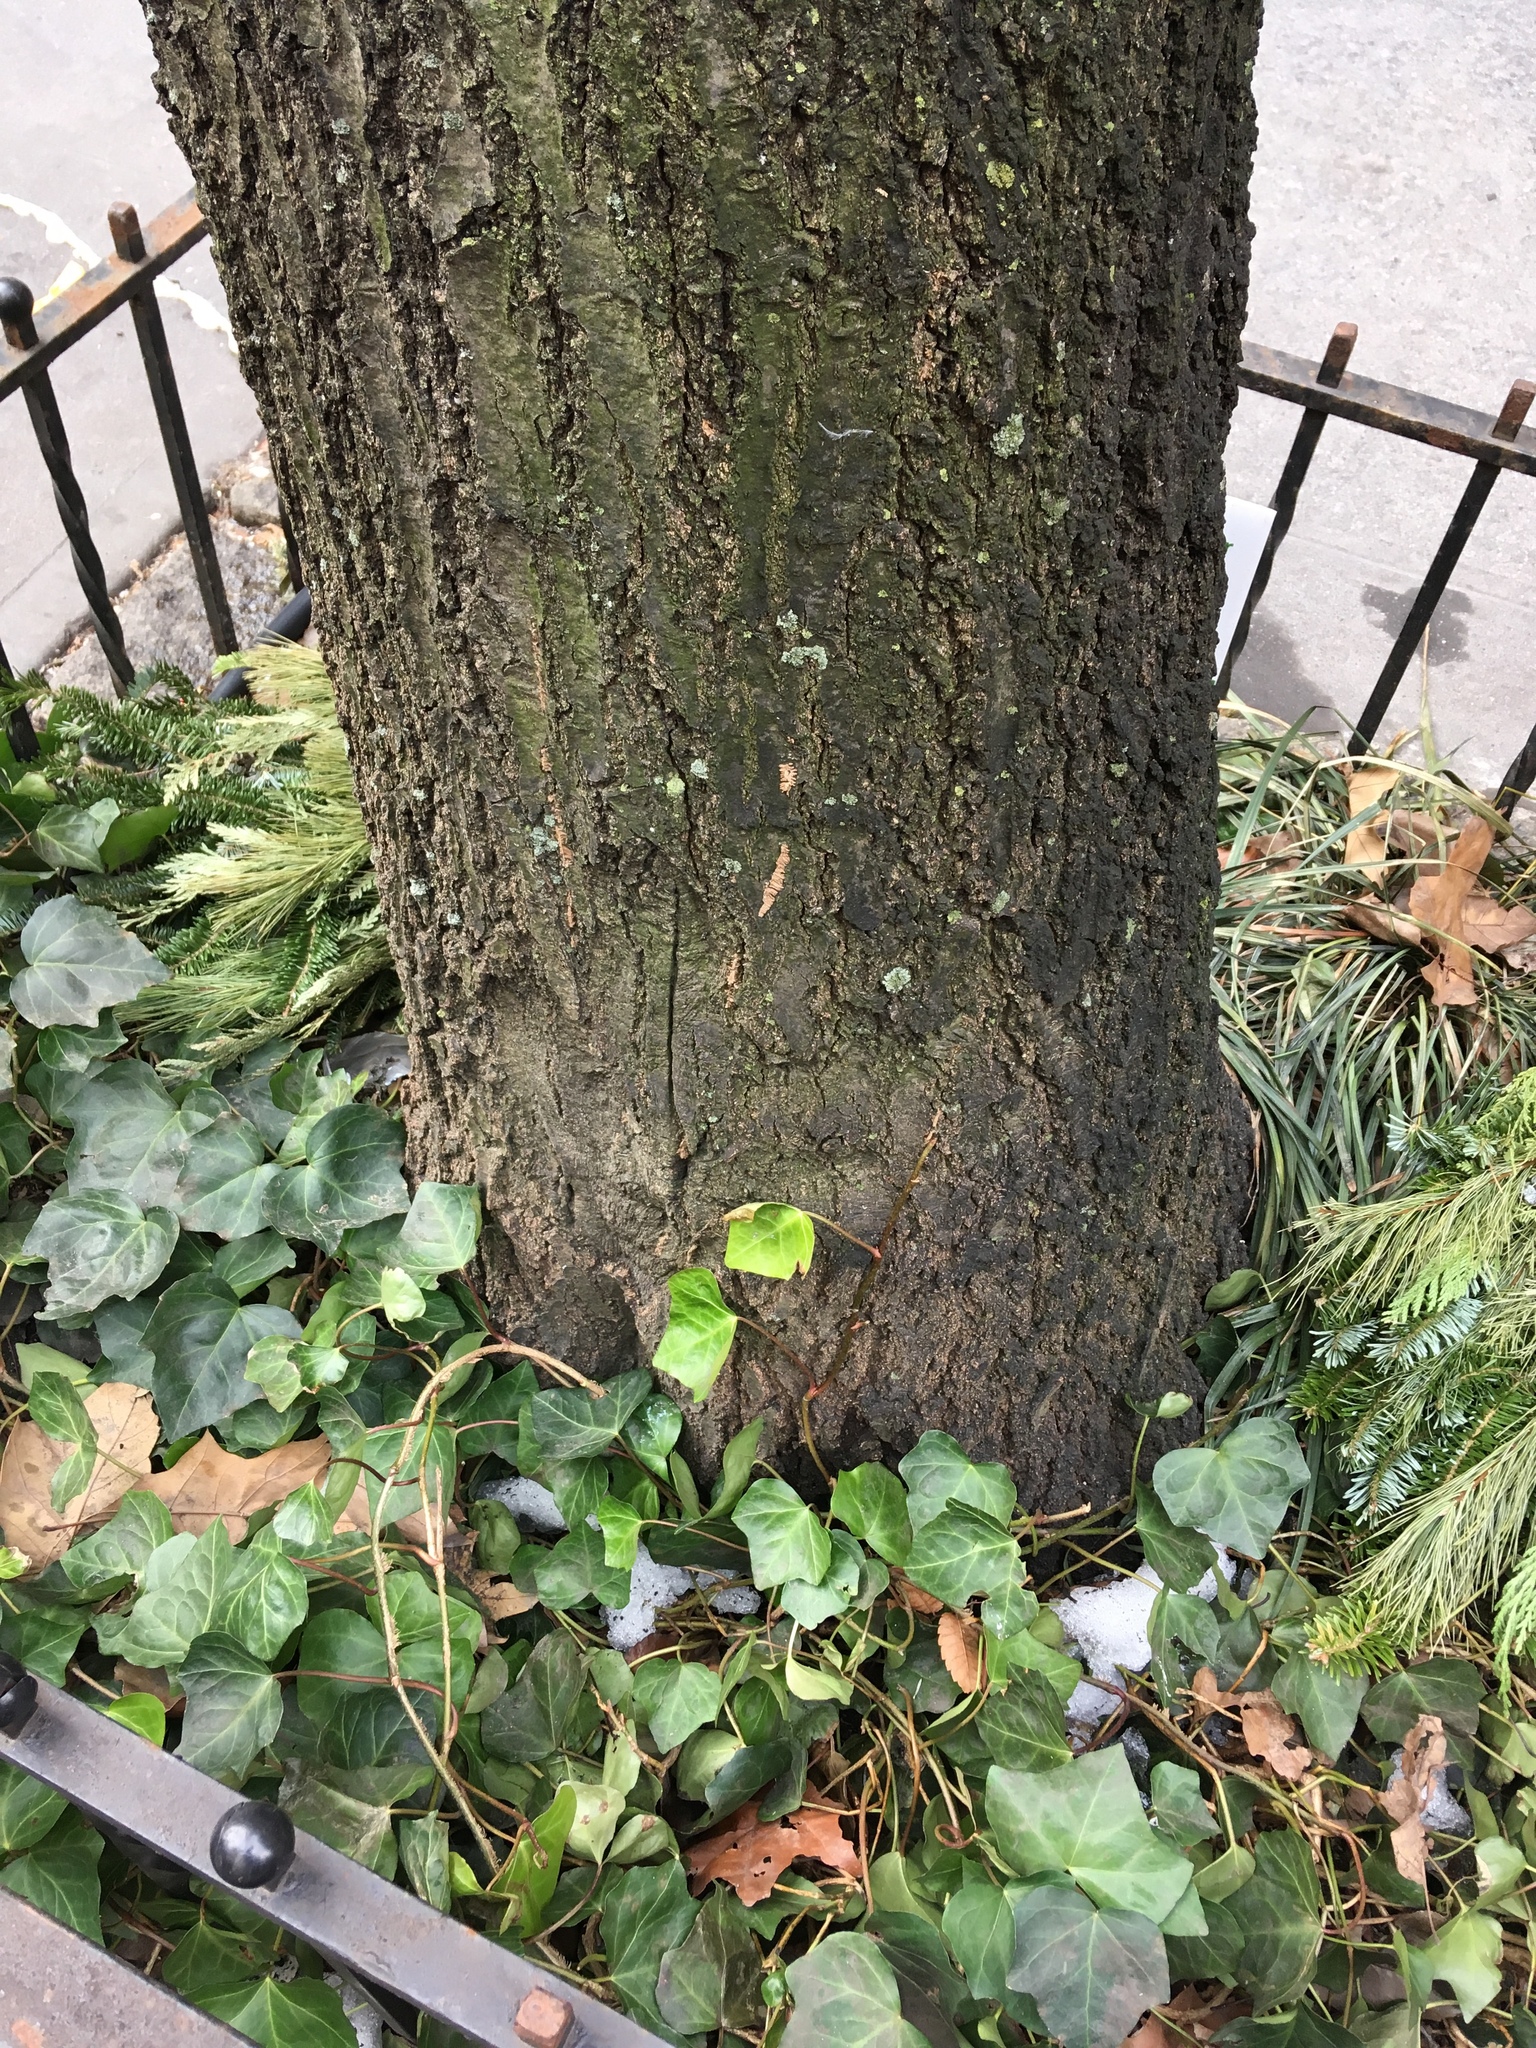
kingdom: Plantae
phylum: Tracheophyta
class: Magnoliopsida
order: Apiales
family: Araliaceae
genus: Hedera
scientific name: Hedera helix
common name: Ivy
